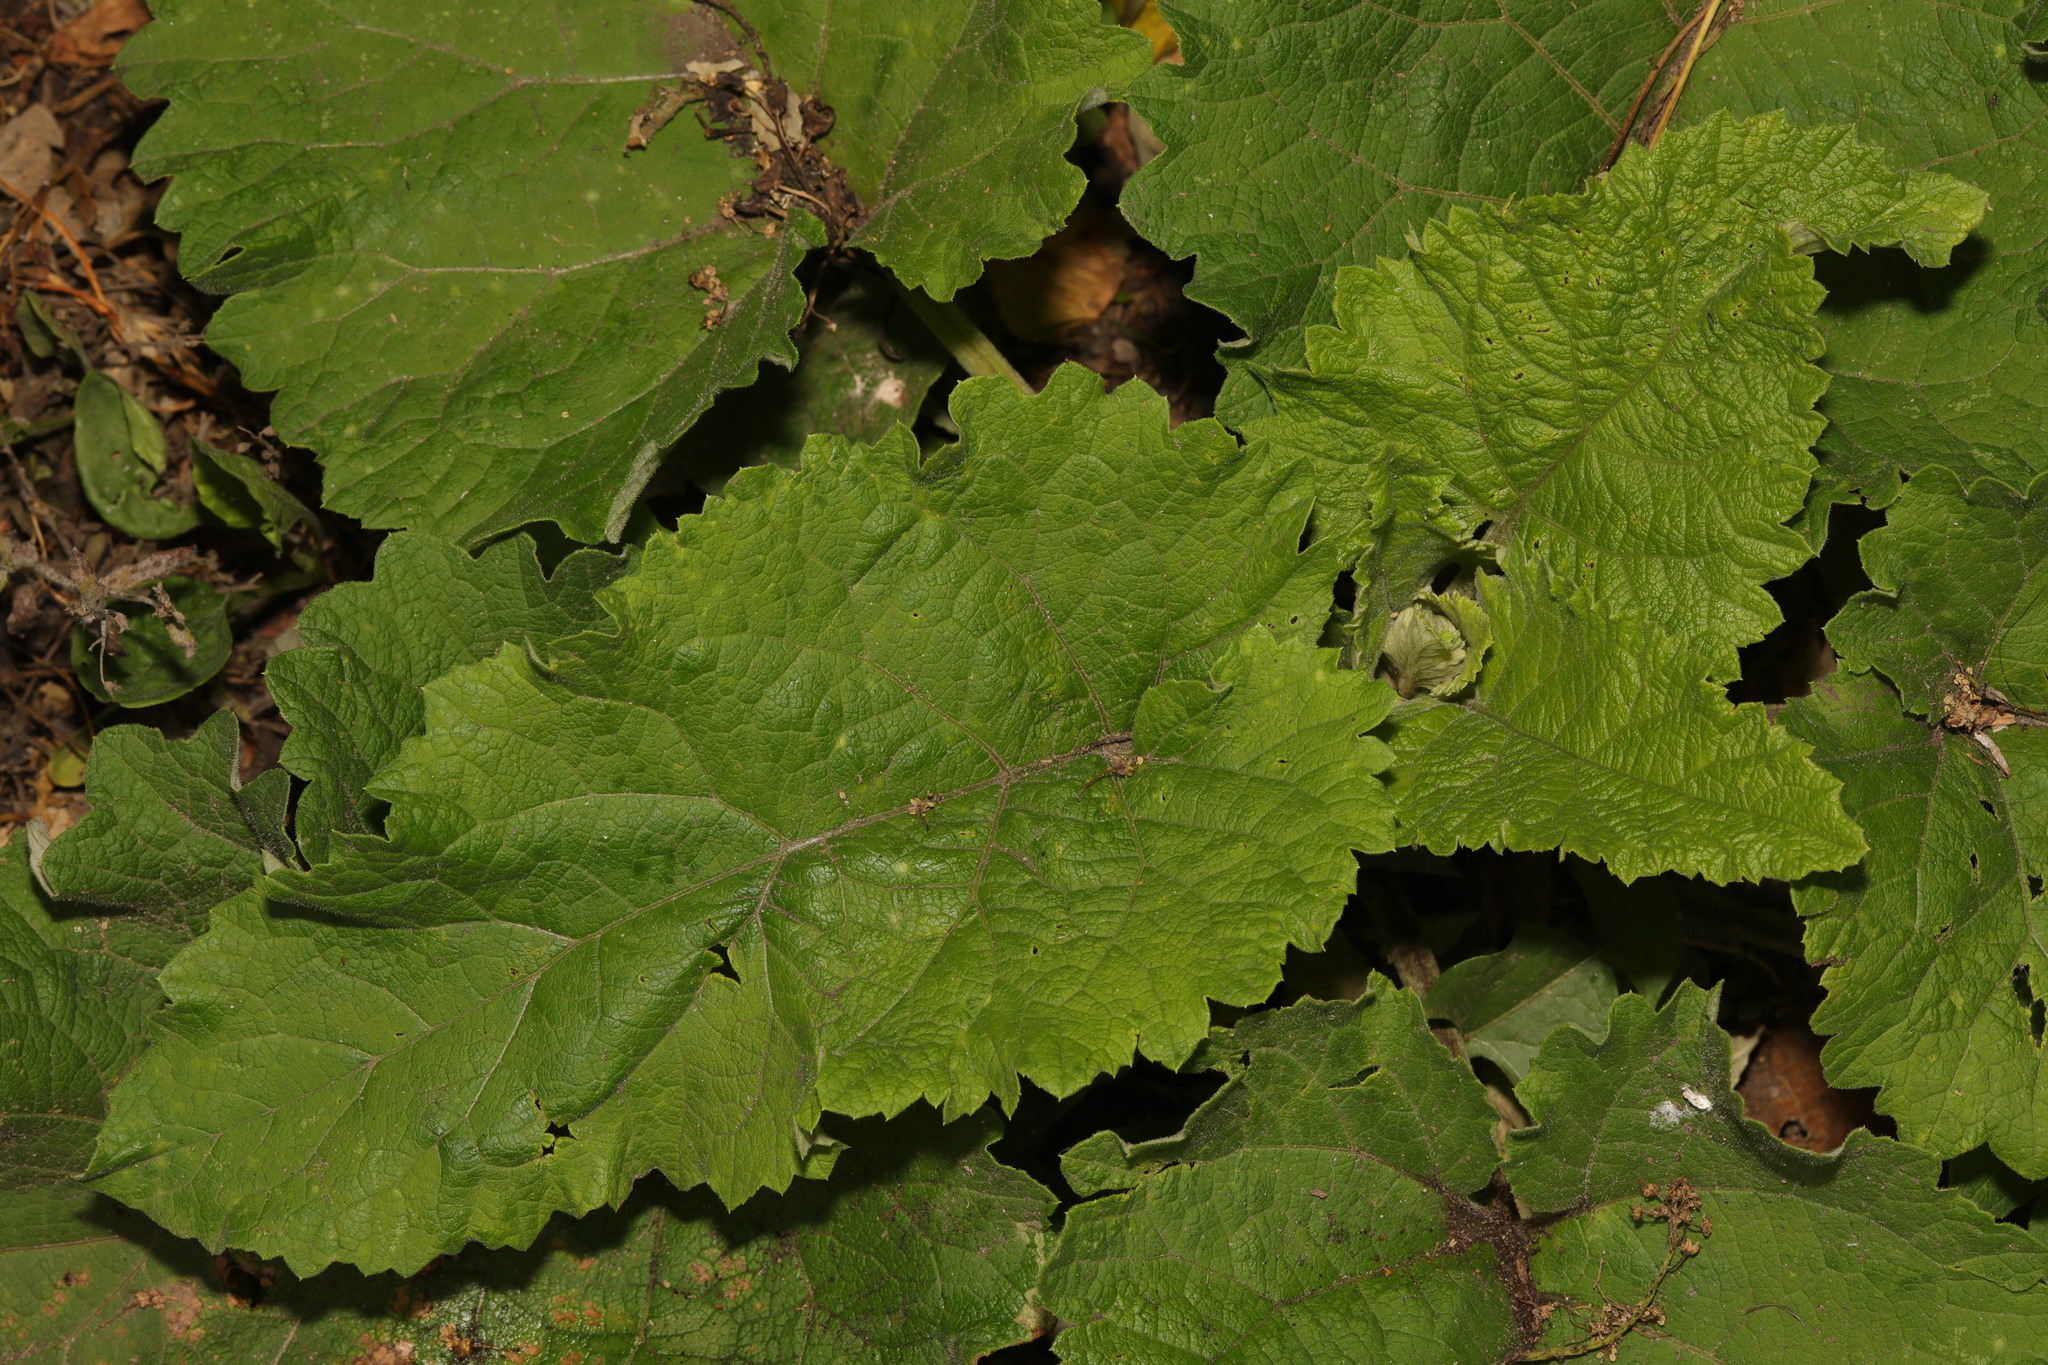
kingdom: Plantae
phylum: Tracheophyta
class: Magnoliopsida
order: Asterales
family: Asteraceae
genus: Arctium
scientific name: Arctium minus
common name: Lesser burdock
